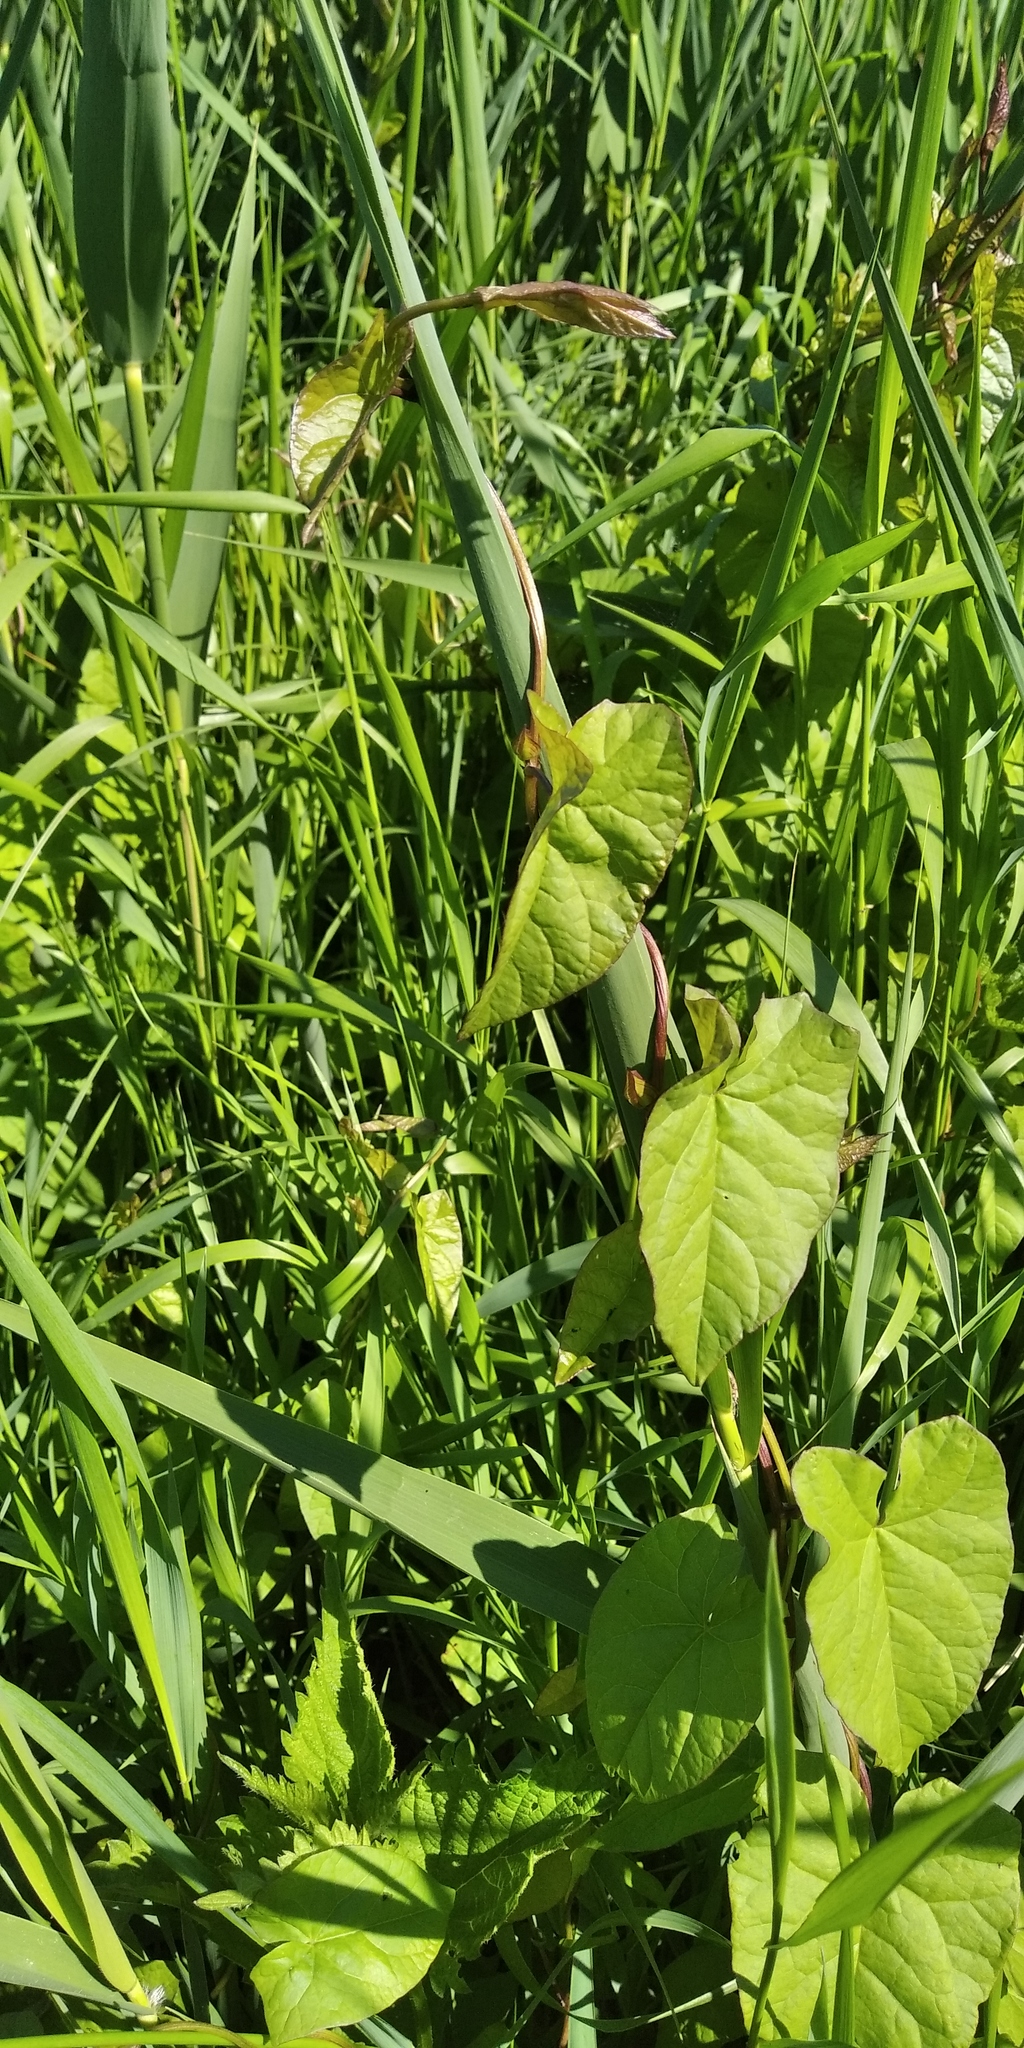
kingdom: Plantae
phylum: Tracheophyta
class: Magnoliopsida
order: Solanales
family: Convolvulaceae
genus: Calystegia
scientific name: Calystegia sepium
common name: Hedge bindweed
